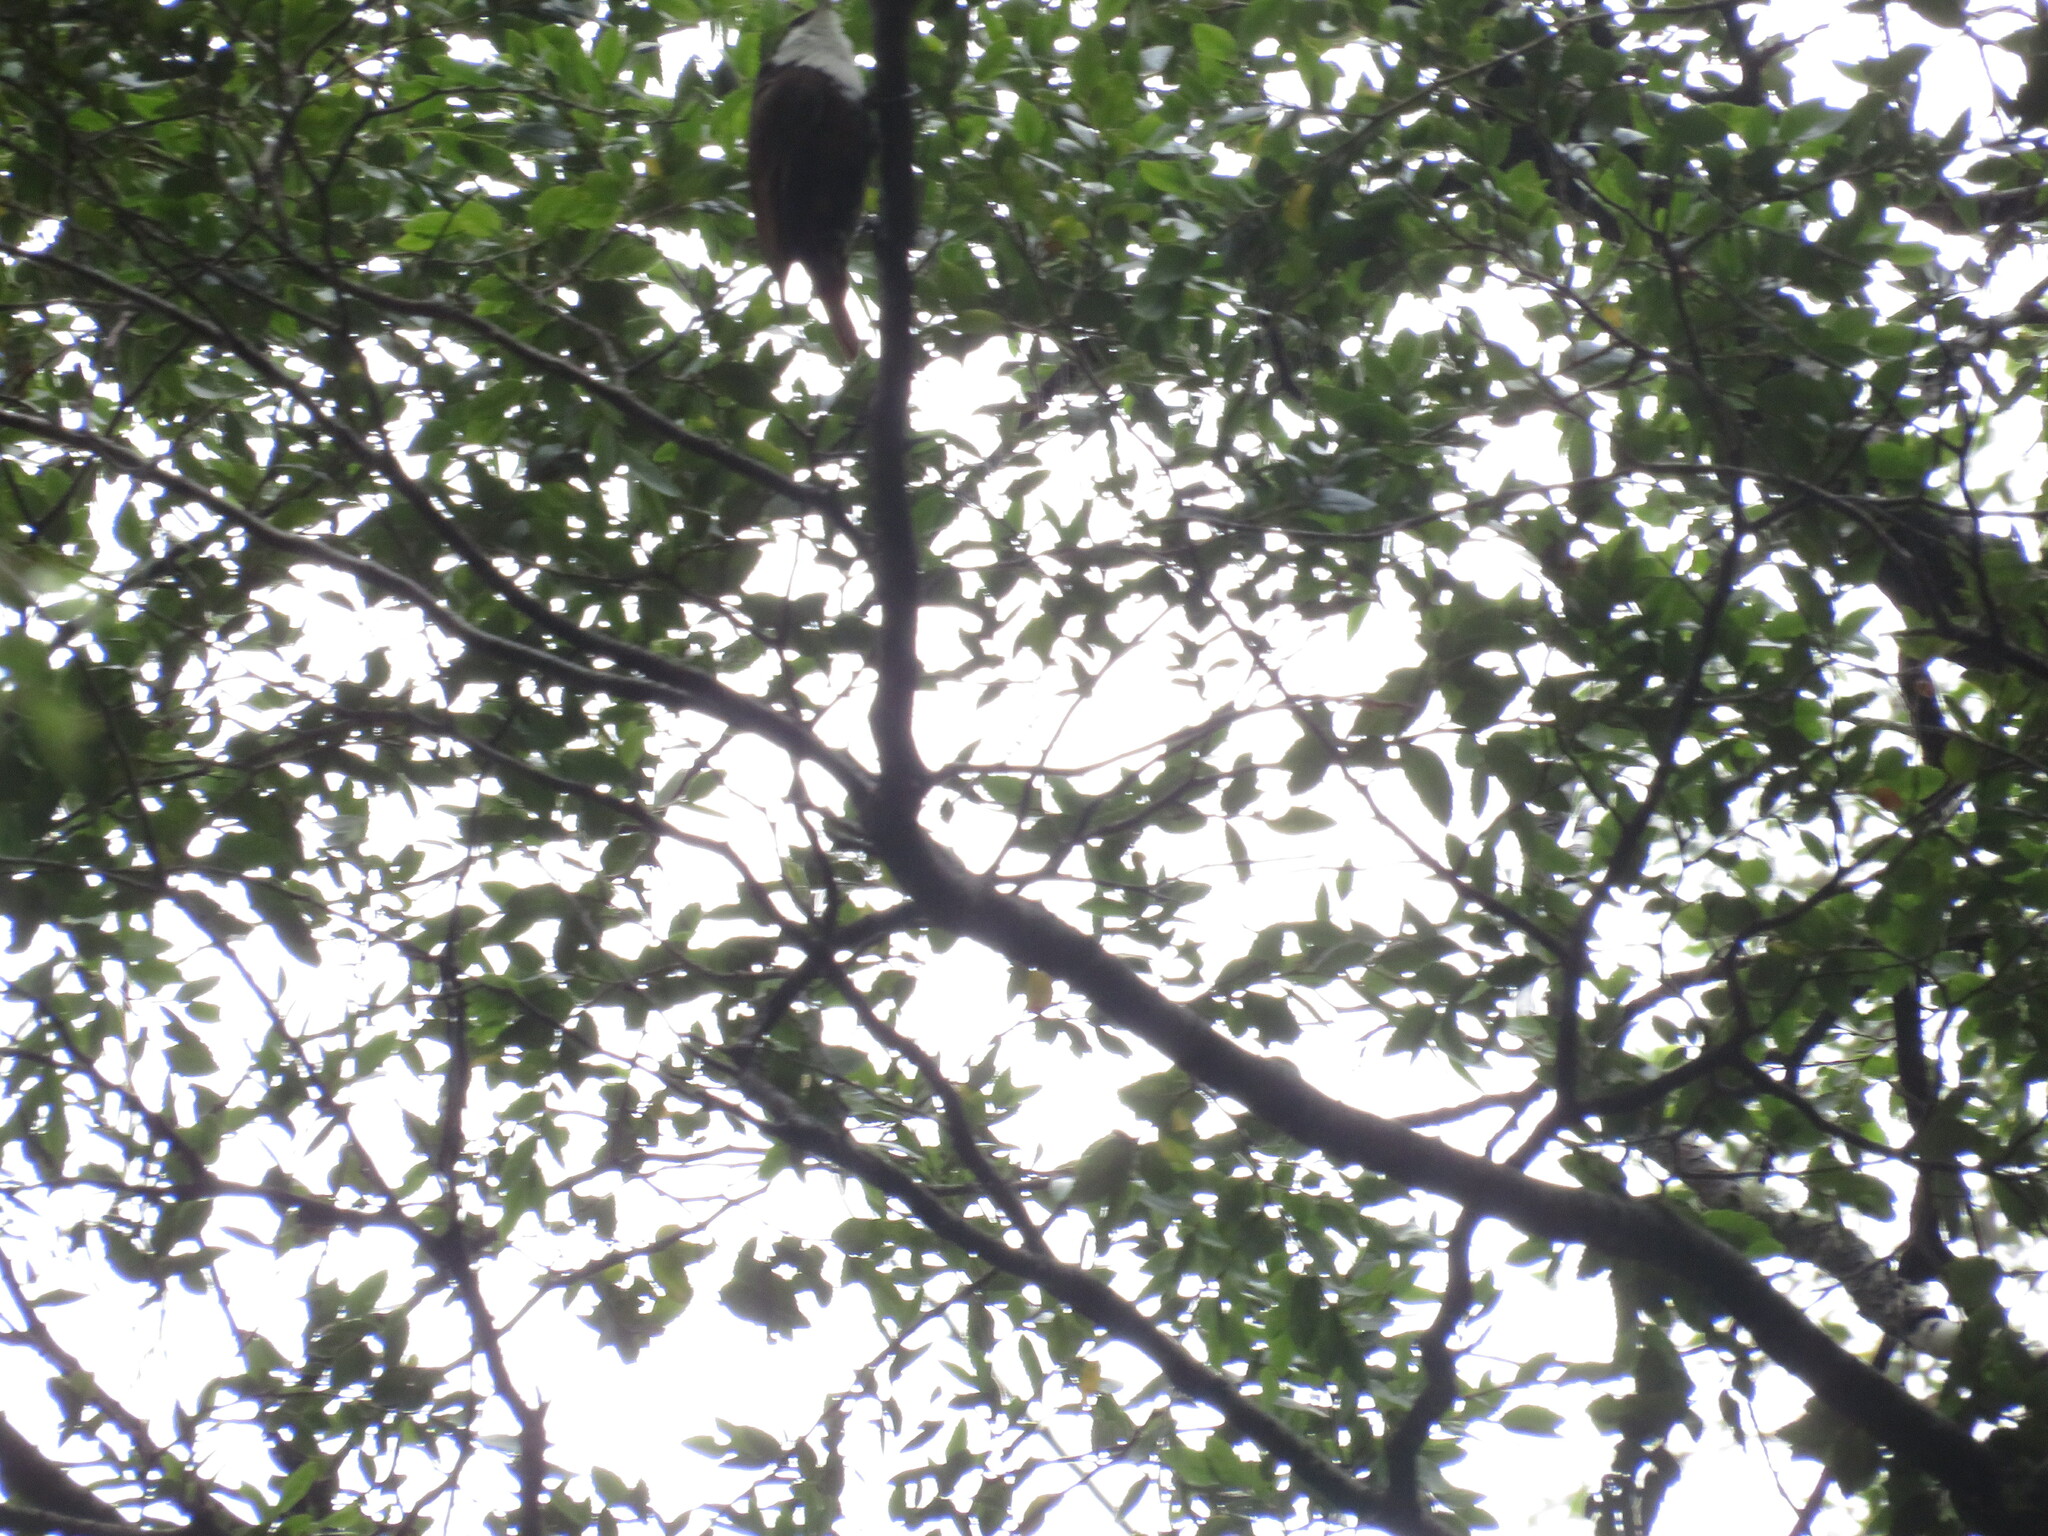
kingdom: Animalia
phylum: Chordata
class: Aves
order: Passeriformes
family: Furnariidae
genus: Pygarrhichas
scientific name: Pygarrhichas albogularis
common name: White-throated treerunner
